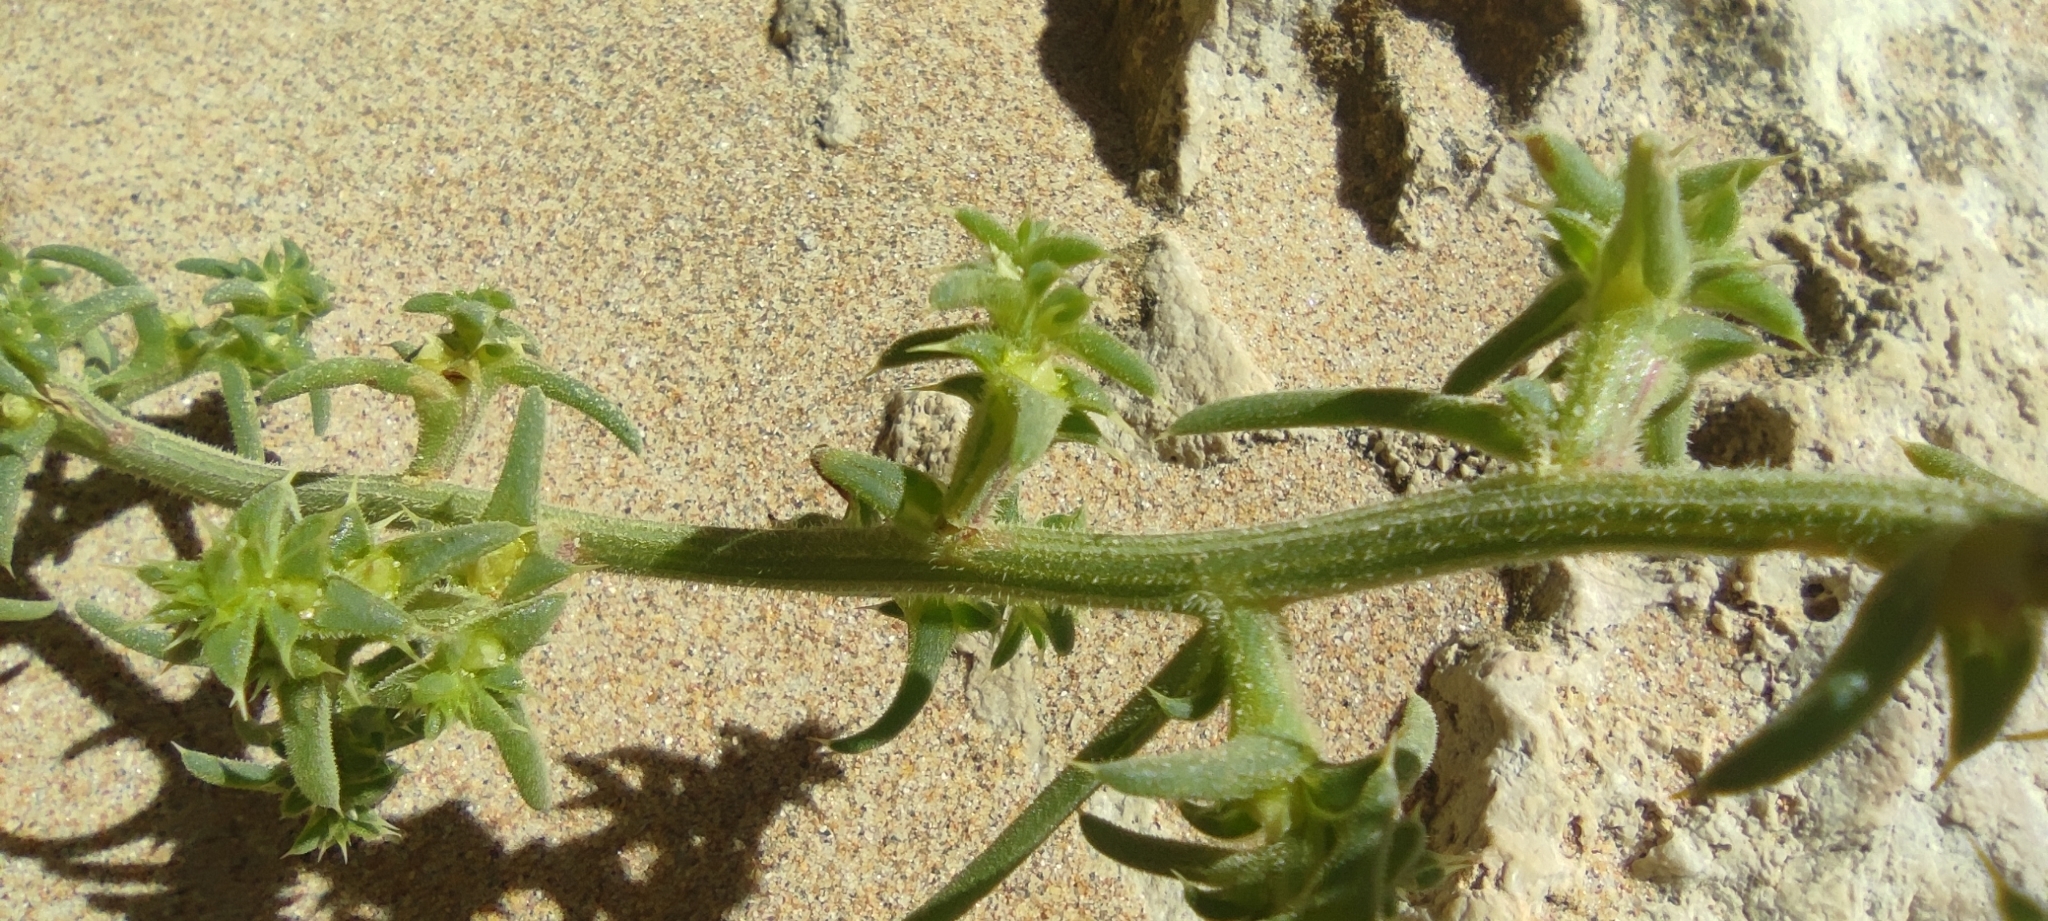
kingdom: Plantae
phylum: Tracheophyta
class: Magnoliopsida
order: Caryophyllales
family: Amaranthaceae
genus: Salsola
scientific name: Salsola kali
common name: Saltwort
